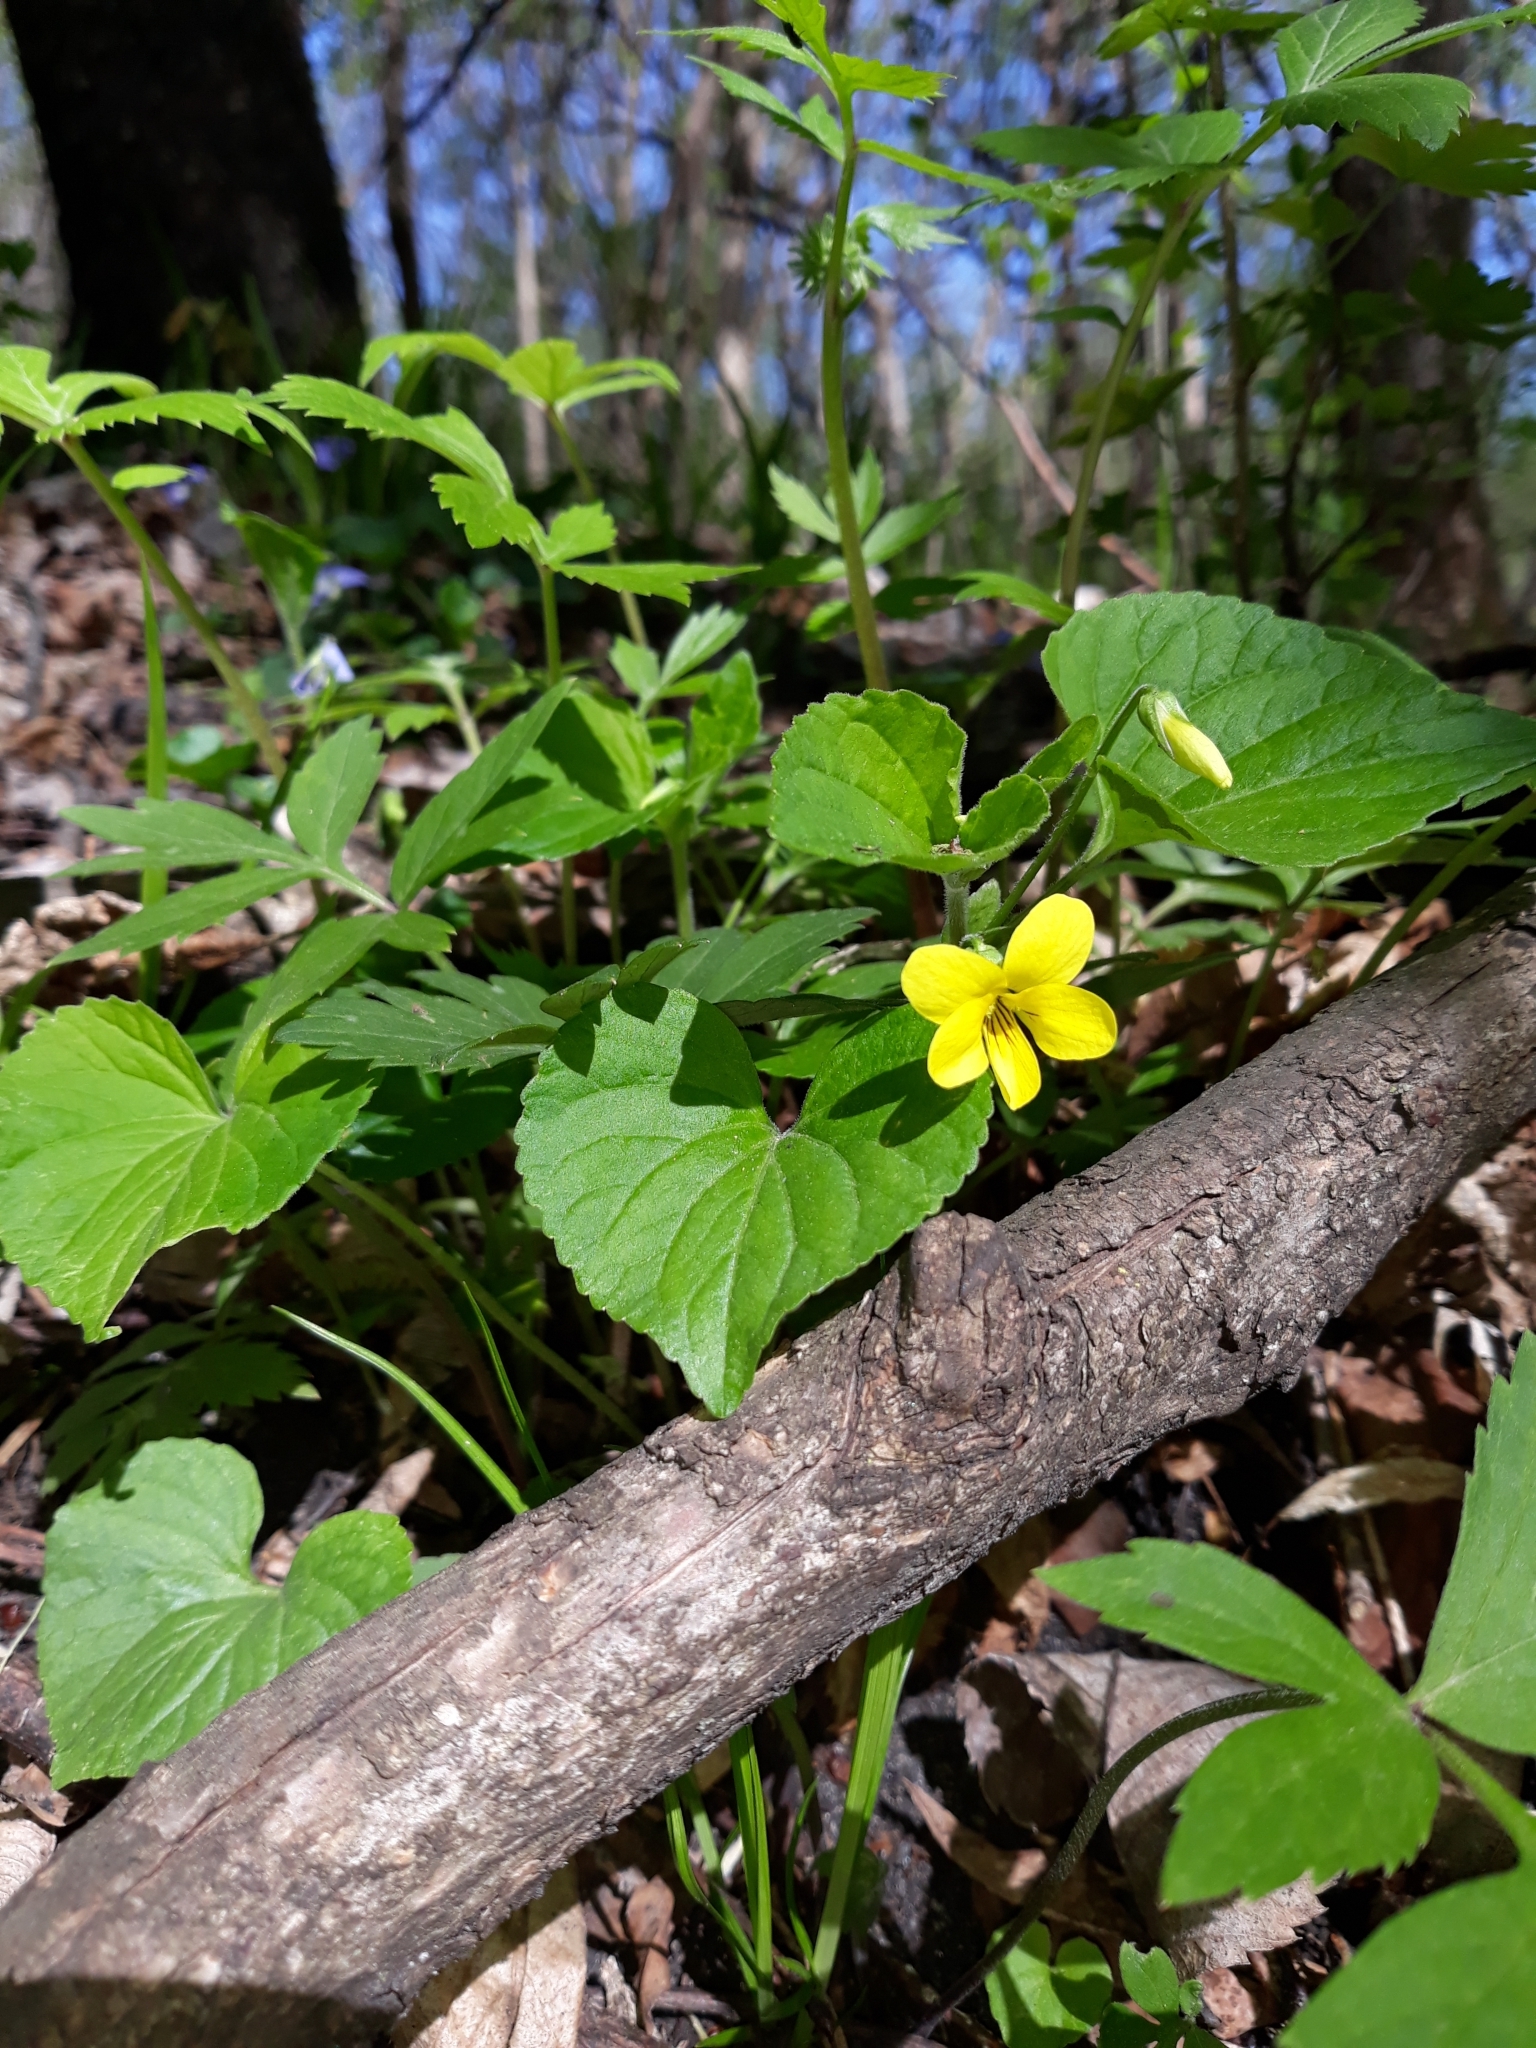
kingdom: Plantae
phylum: Tracheophyta
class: Magnoliopsida
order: Malpighiales
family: Violaceae
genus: Viola
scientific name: Viola eriocarpa
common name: Smooth yellow violet
